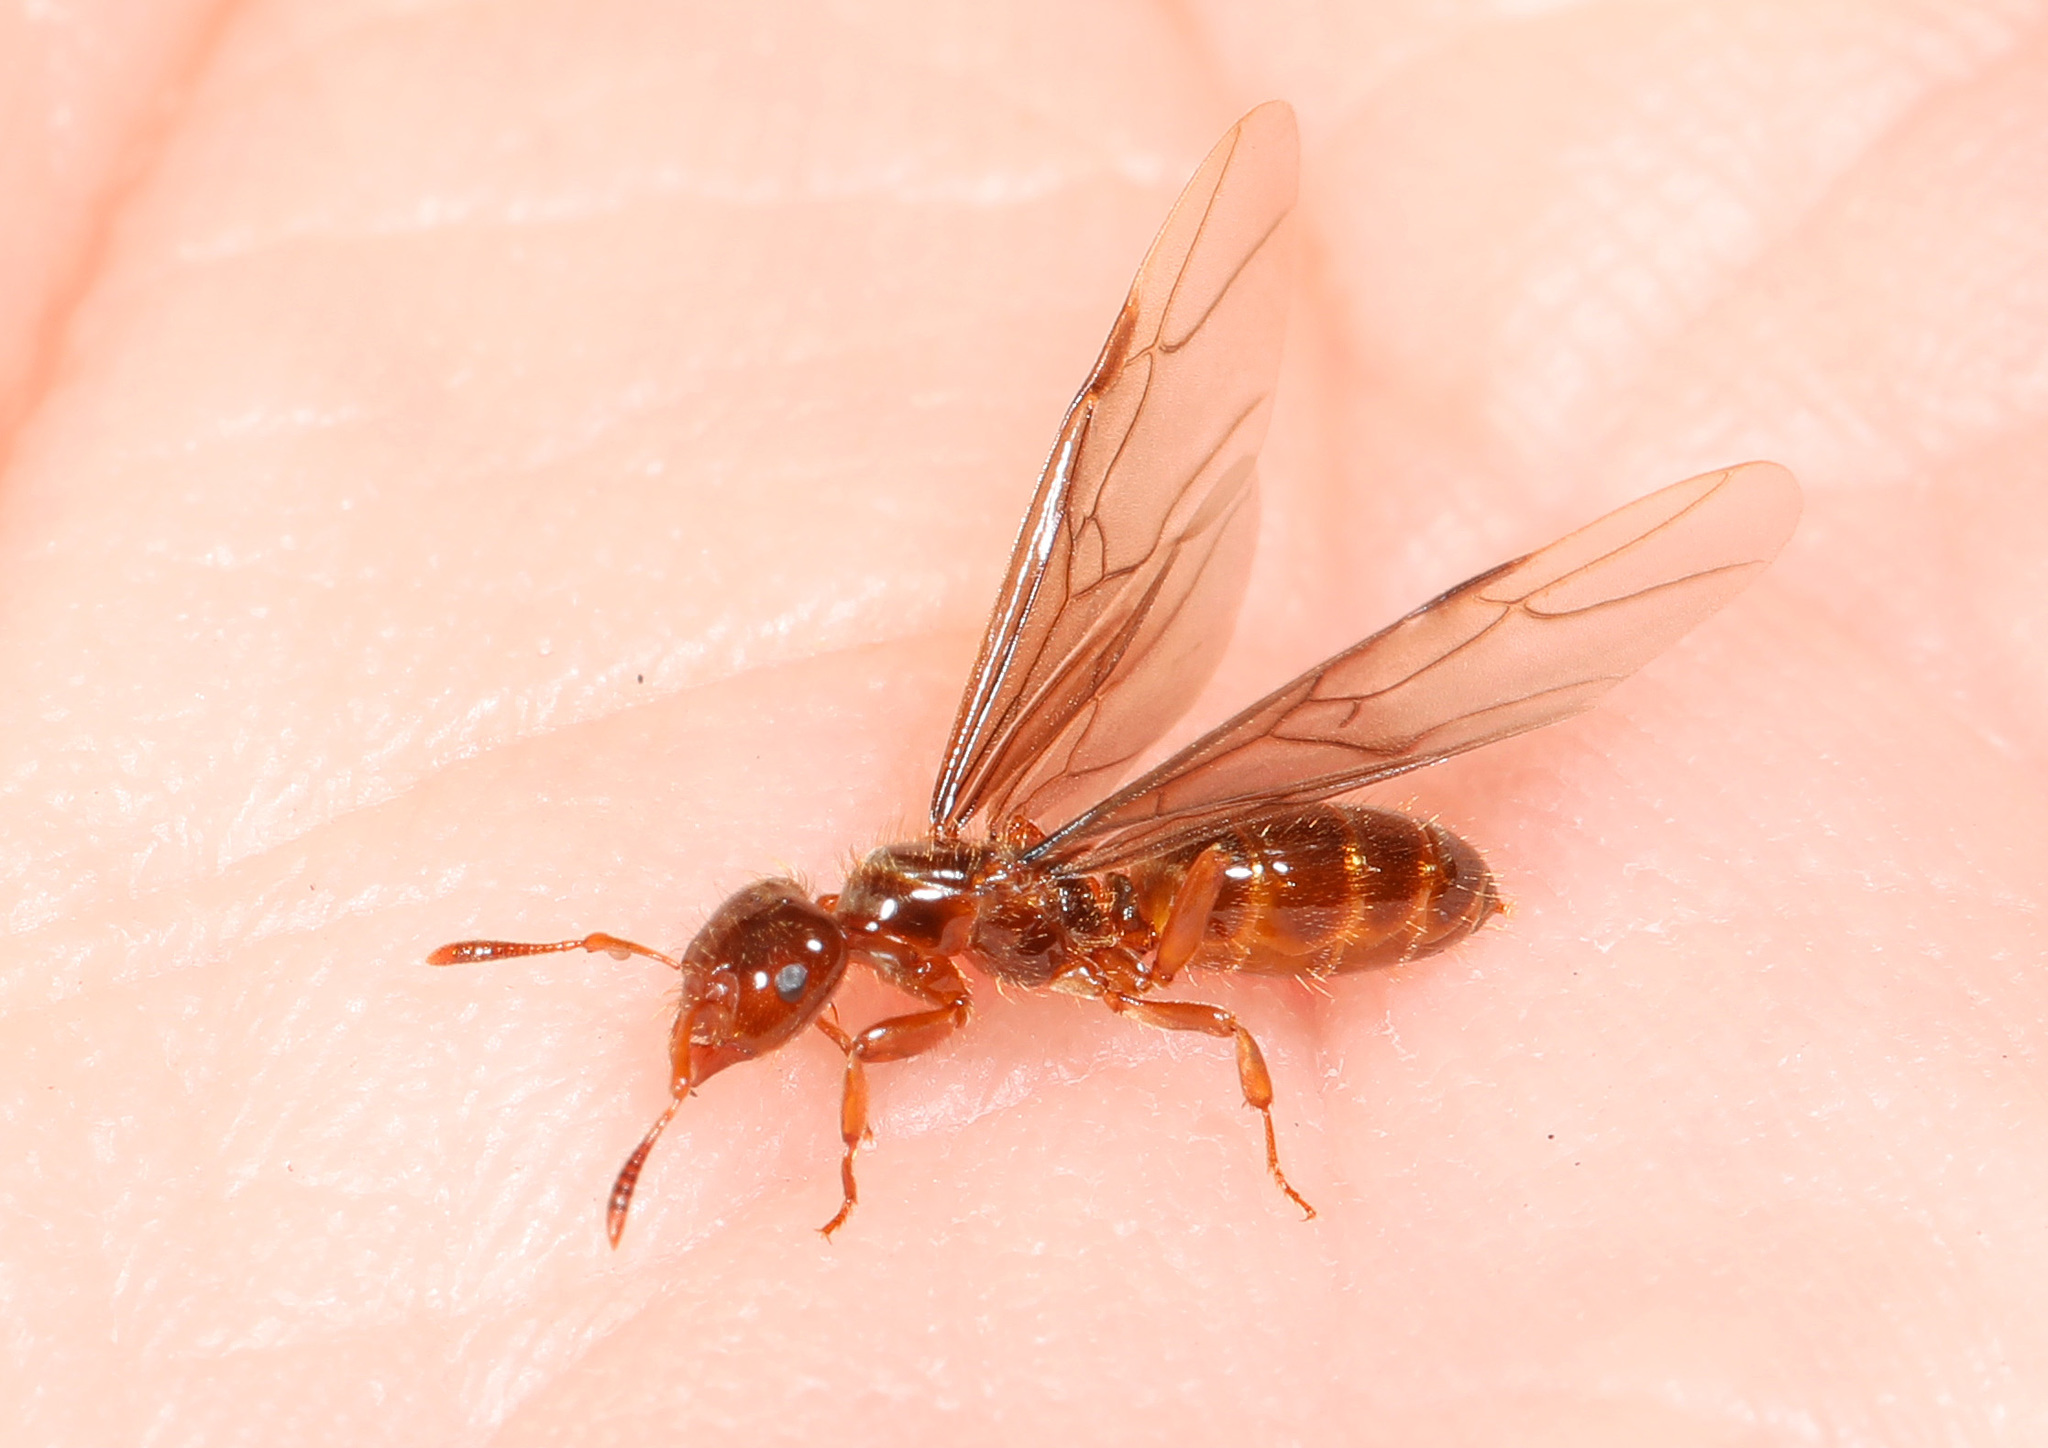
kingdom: Animalia
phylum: Arthropoda
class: Insecta
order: Hymenoptera
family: Formicidae
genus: Lasius
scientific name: Lasius claviger
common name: Common citronella ant
